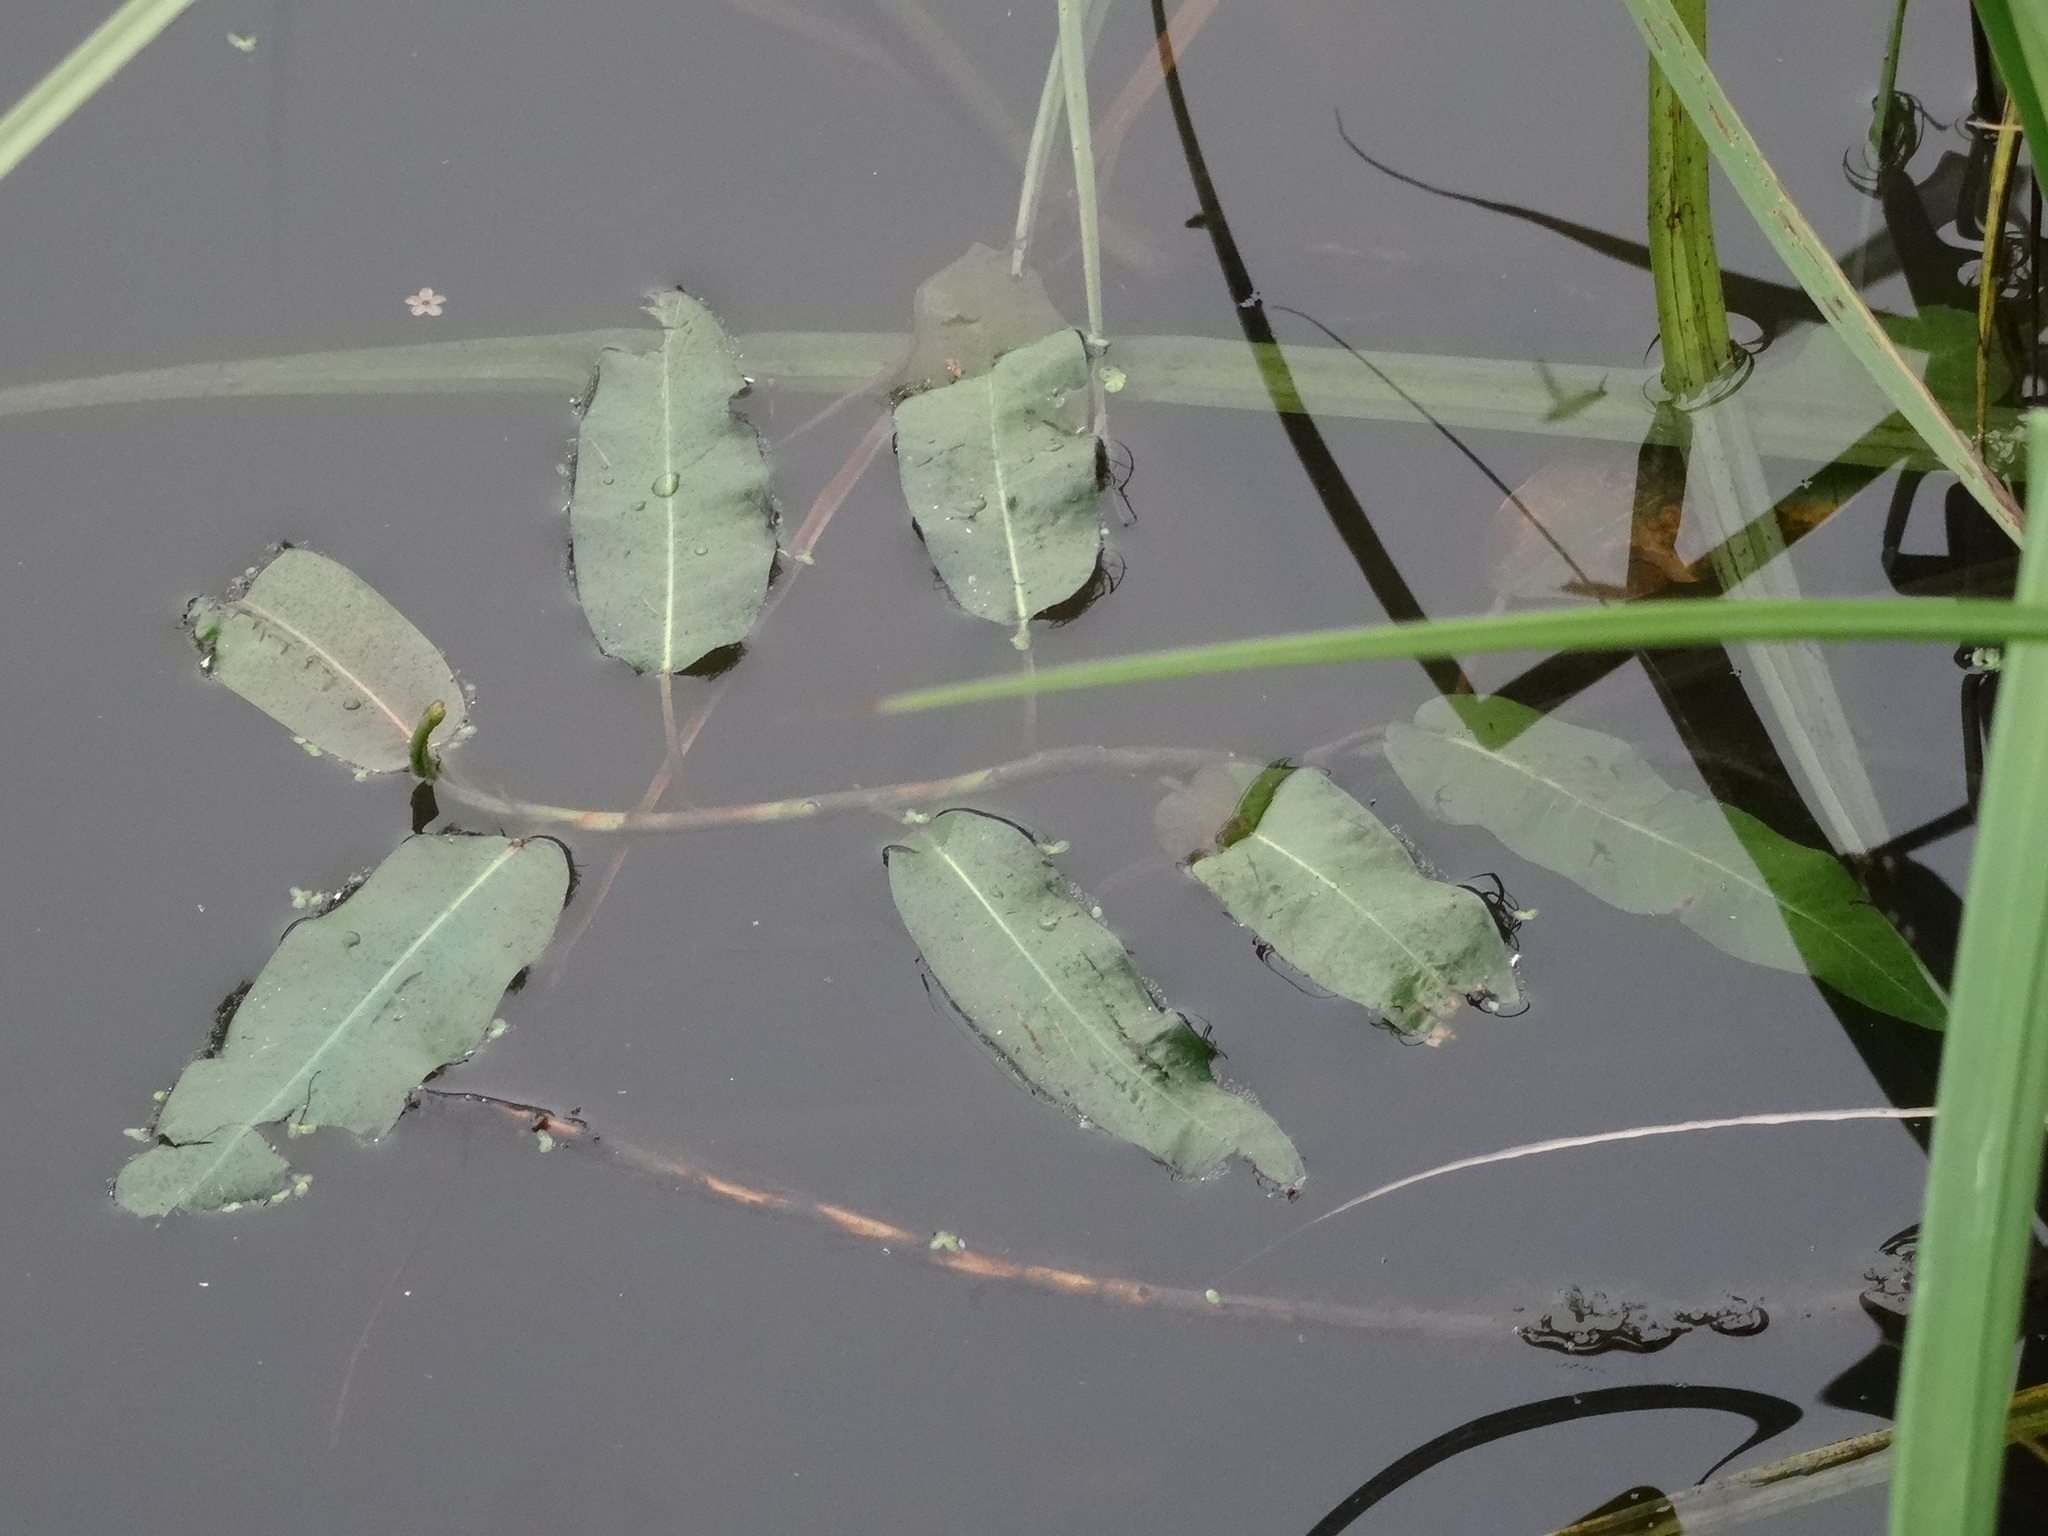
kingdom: Plantae
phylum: Tracheophyta
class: Magnoliopsida
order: Caryophyllales
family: Polygonaceae
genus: Persicaria
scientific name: Persicaria amphibia
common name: Amphibious bistort
